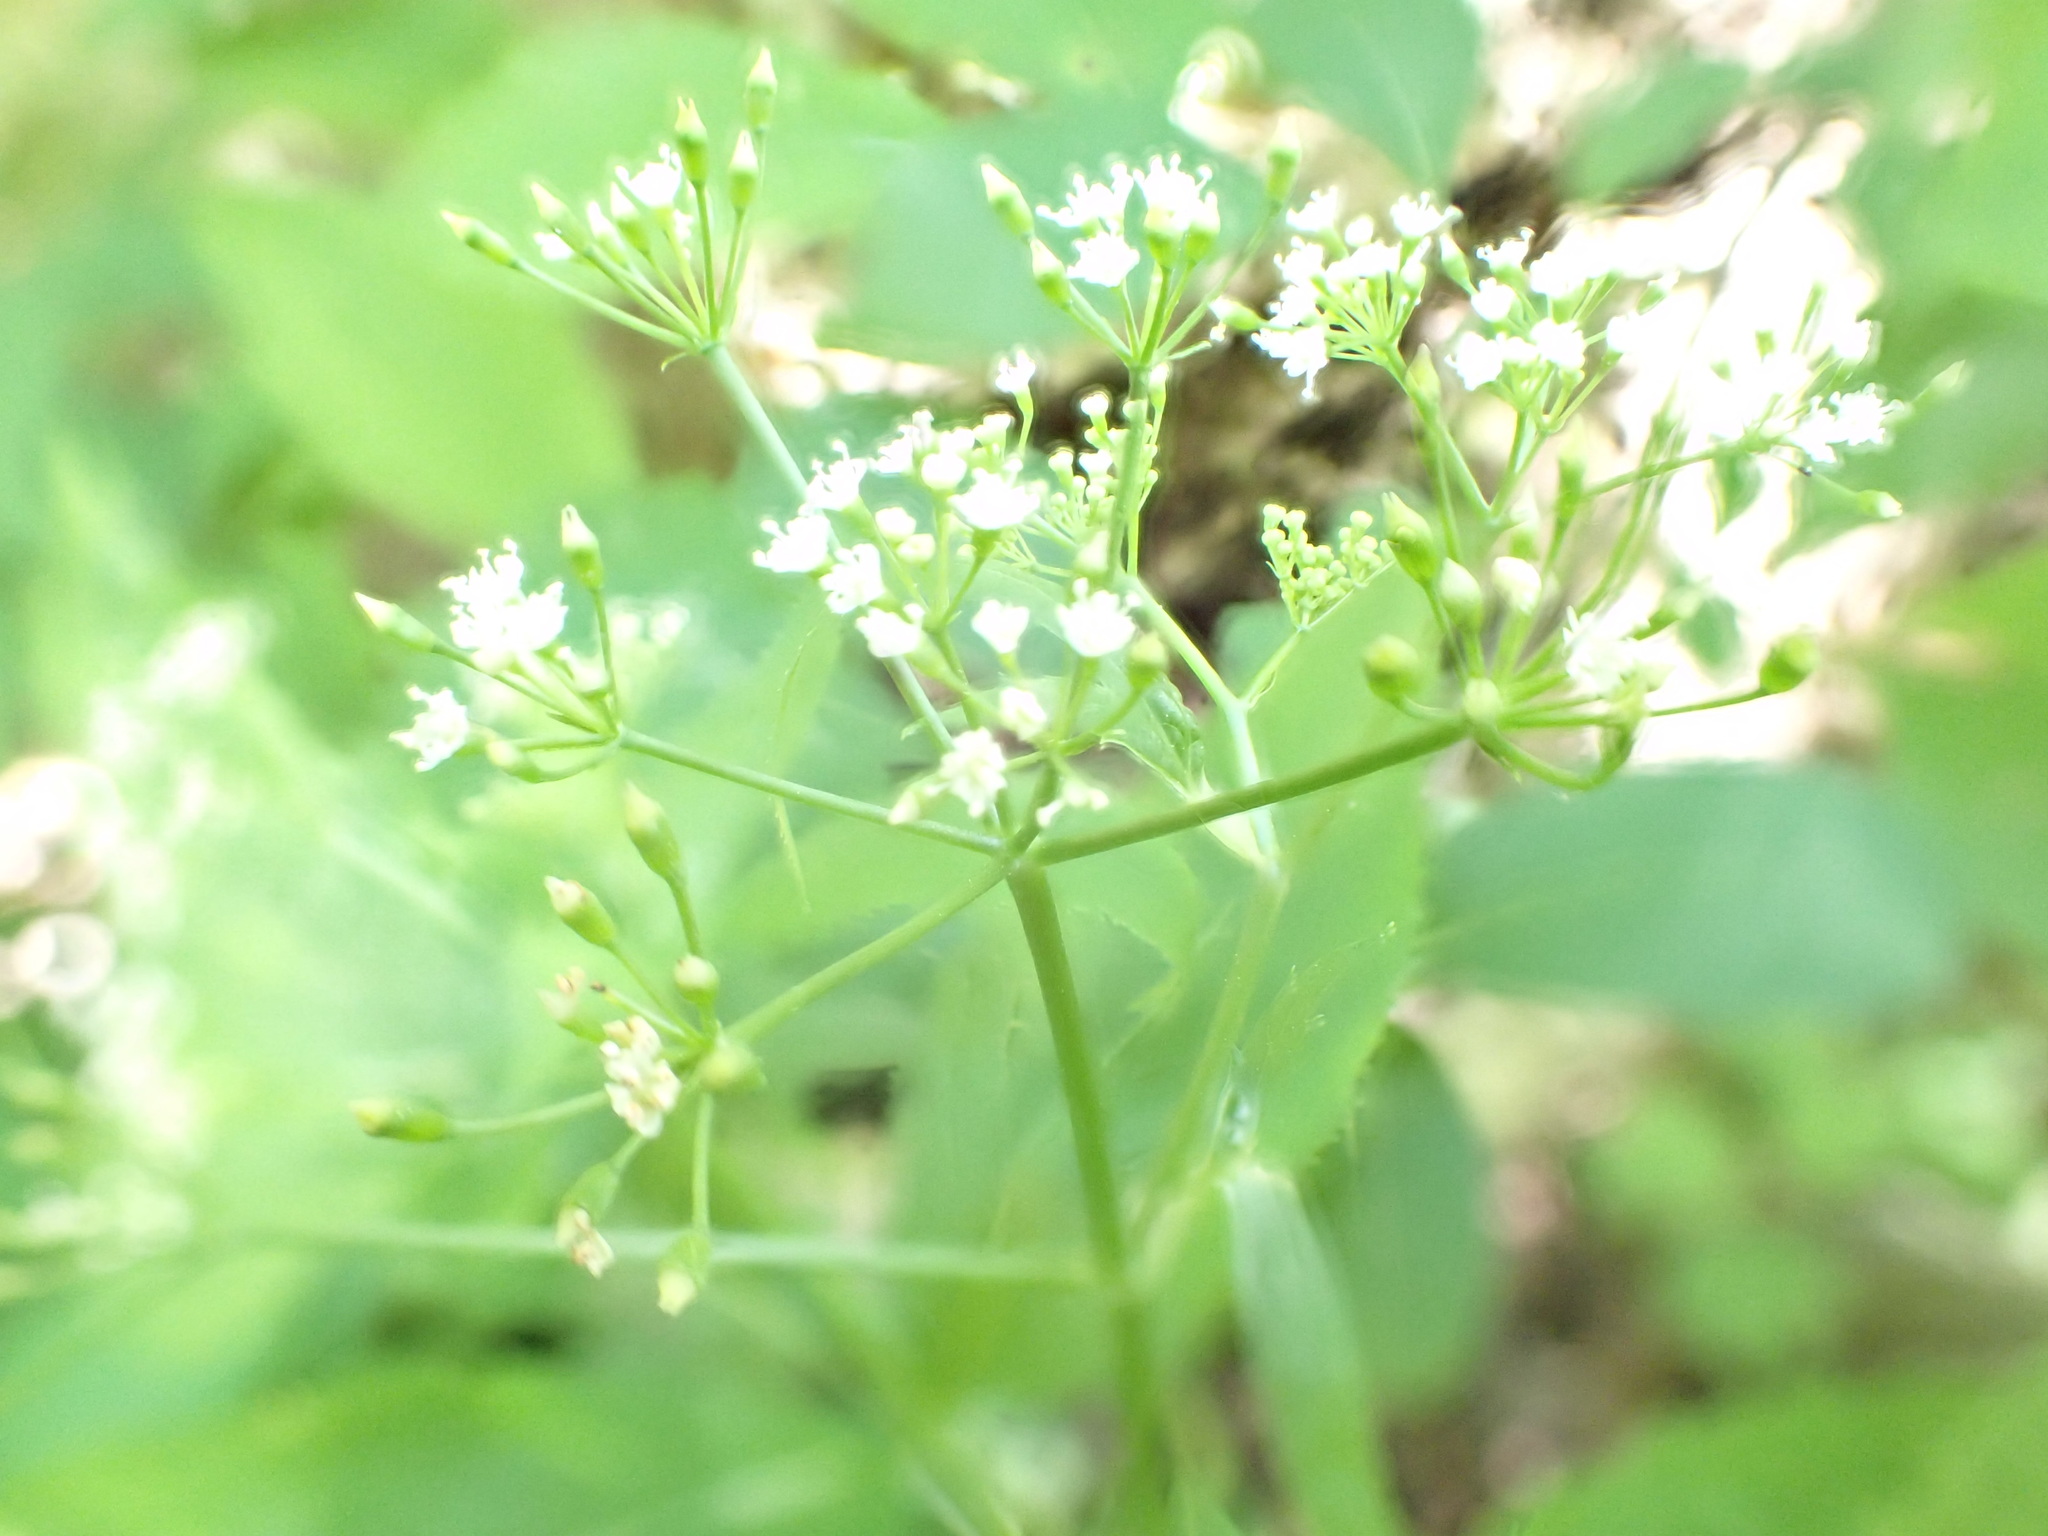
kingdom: Plantae
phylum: Tracheophyta
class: Magnoliopsida
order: Apiales
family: Apiaceae
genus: Cryptotaenia
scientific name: Cryptotaenia canadensis
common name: Honewort
